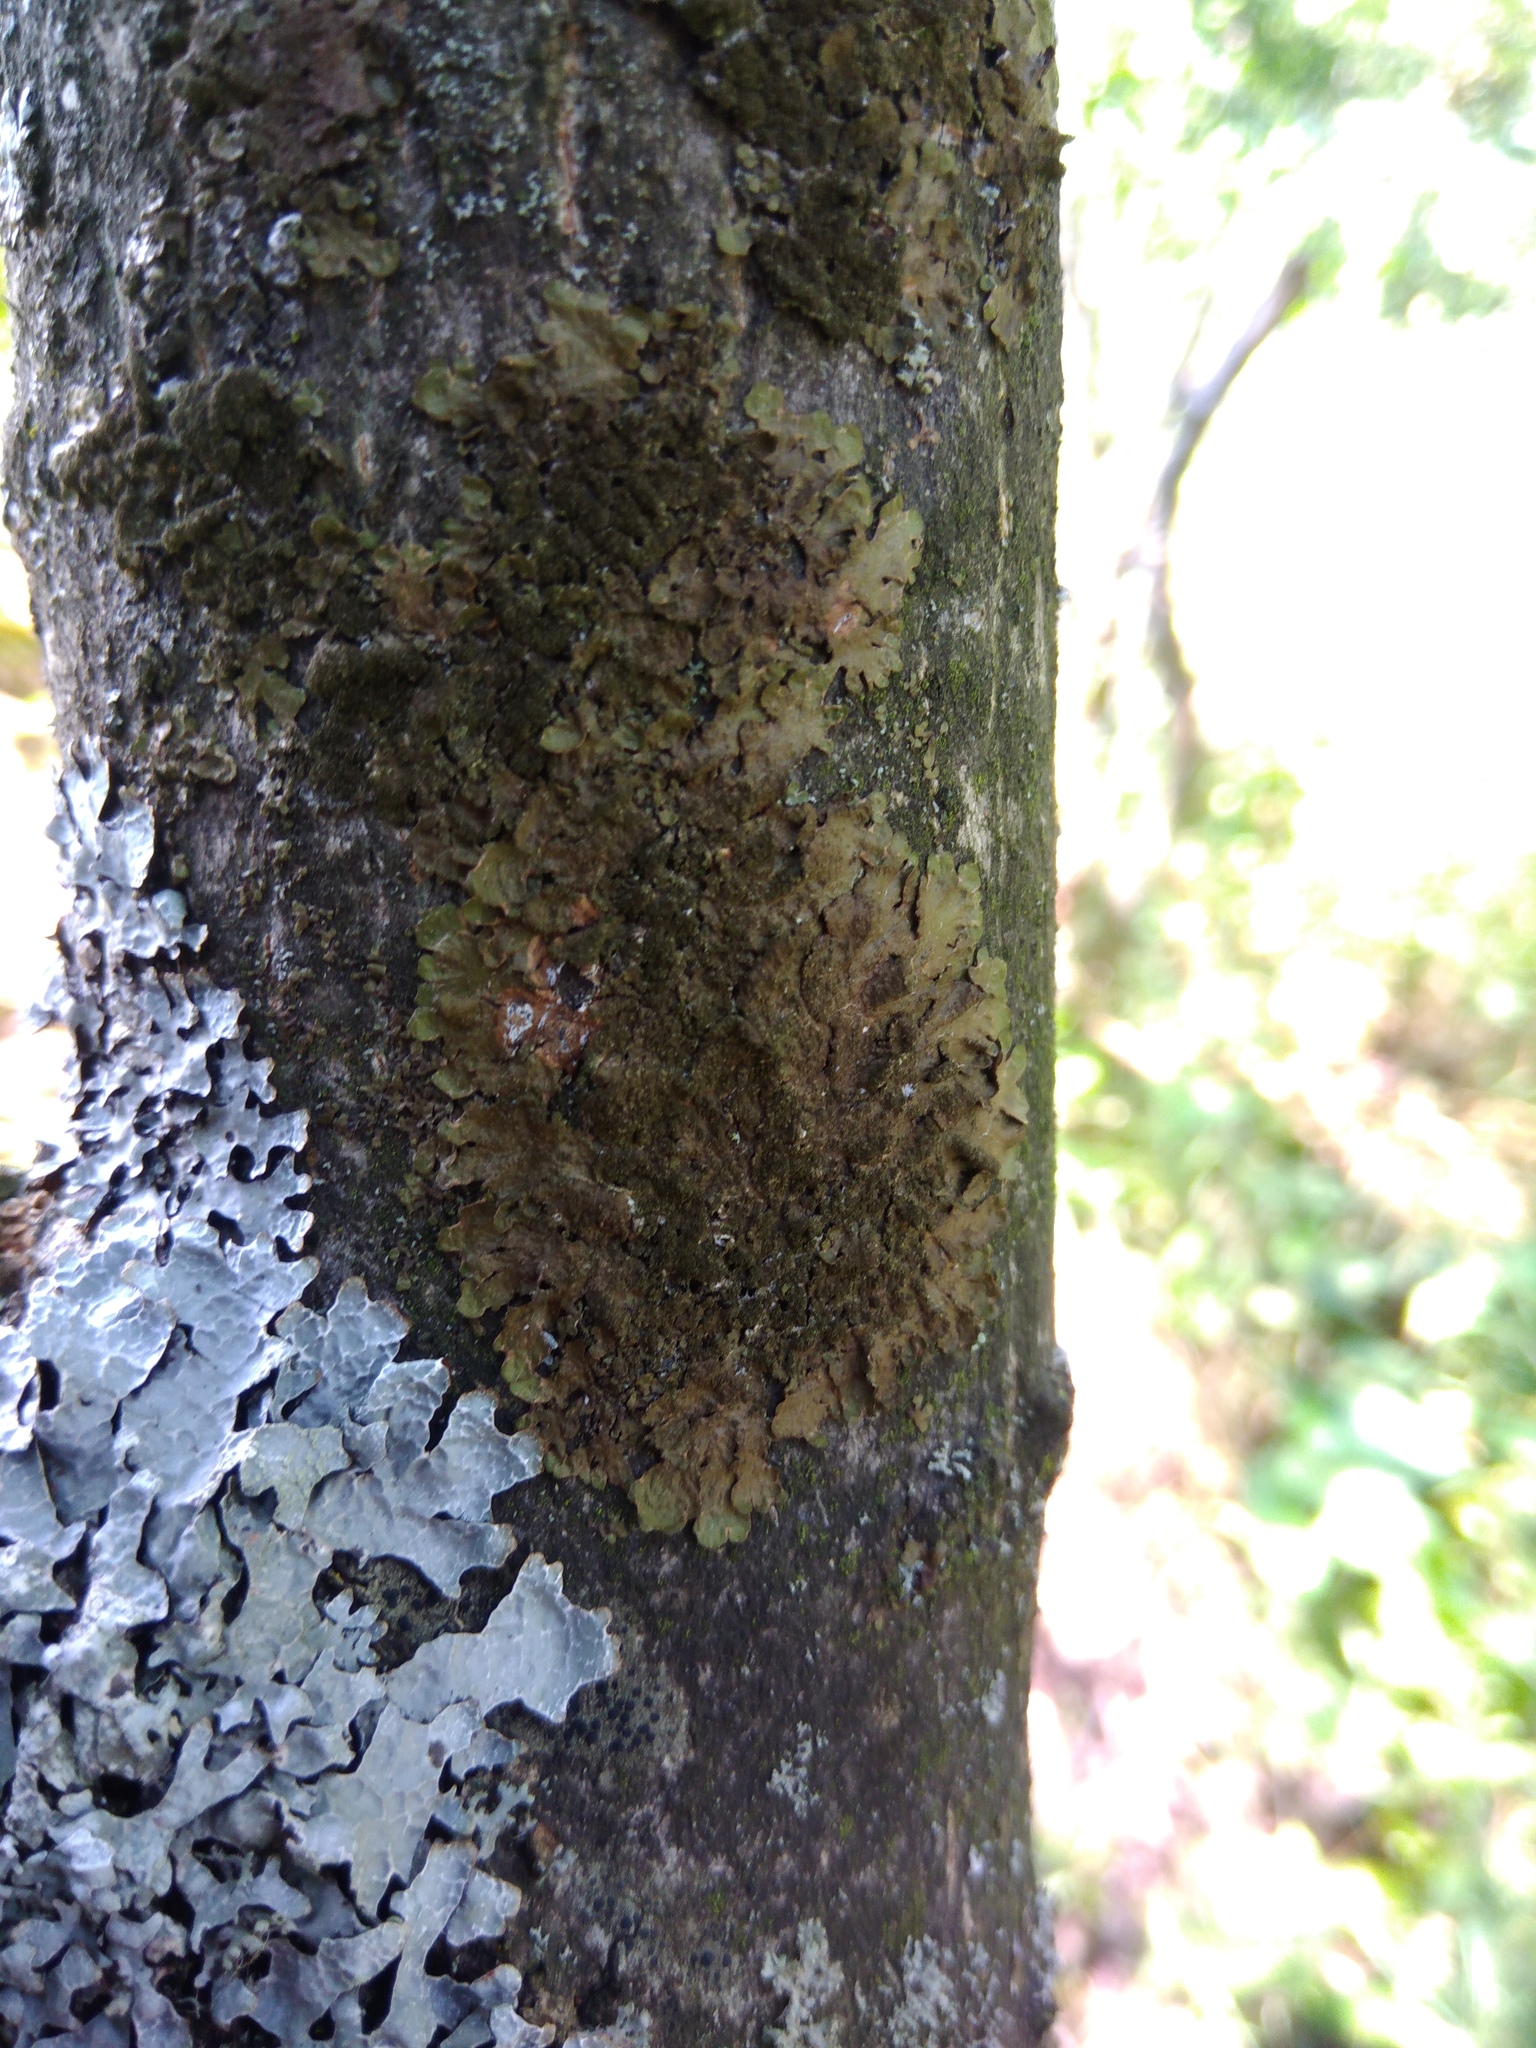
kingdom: Fungi
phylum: Ascomycota
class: Lecanoromycetes
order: Lecanorales
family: Parmeliaceae
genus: Melanelixia
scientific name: Melanelixia subaurifera
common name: Abraded camouflage lichen
